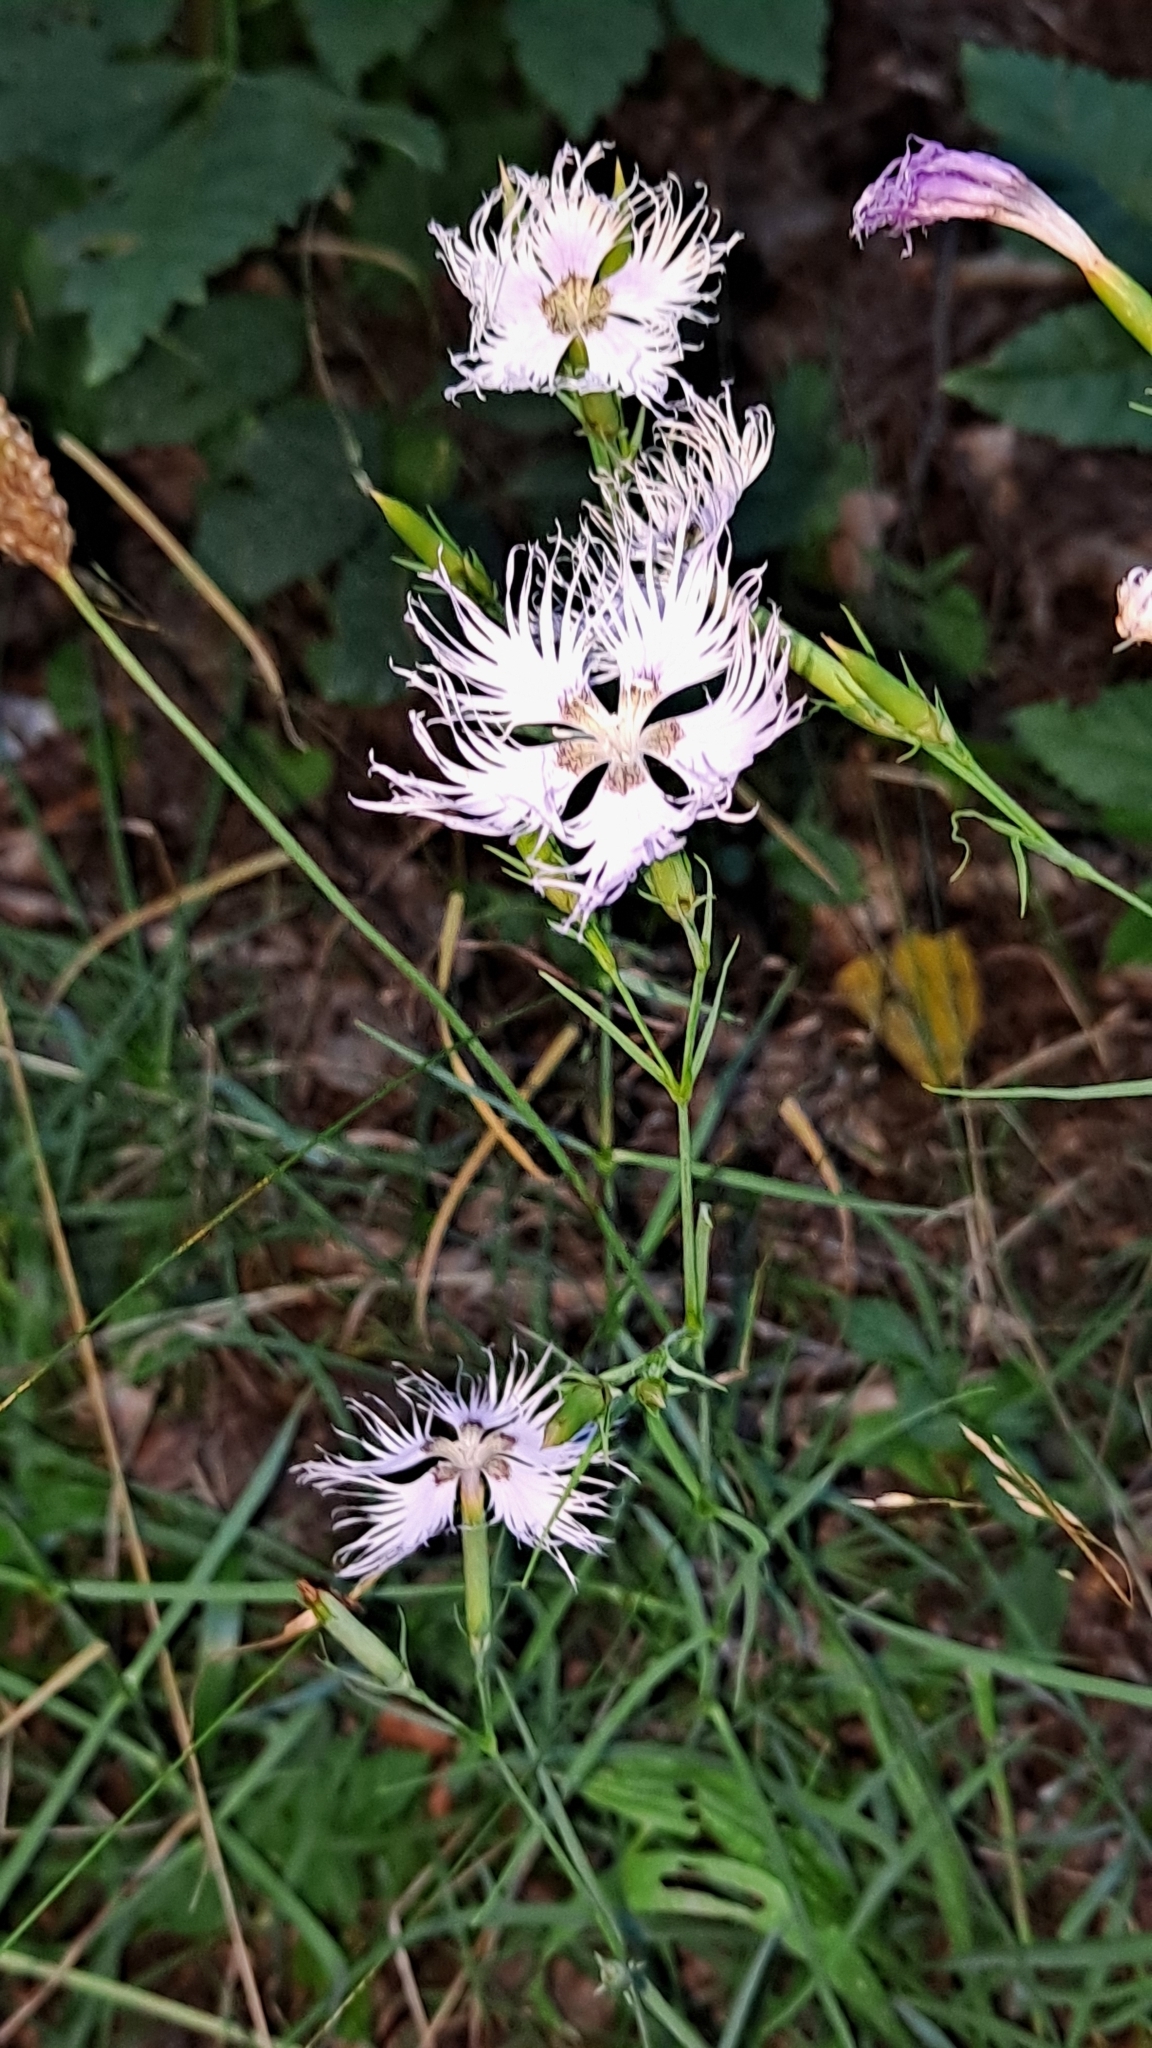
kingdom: Plantae
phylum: Tracheophyta
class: Magnoliopsida
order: Caryophyllales
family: Caryophyllaceae
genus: Dianthus
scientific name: Dianthus hyssopifolius
